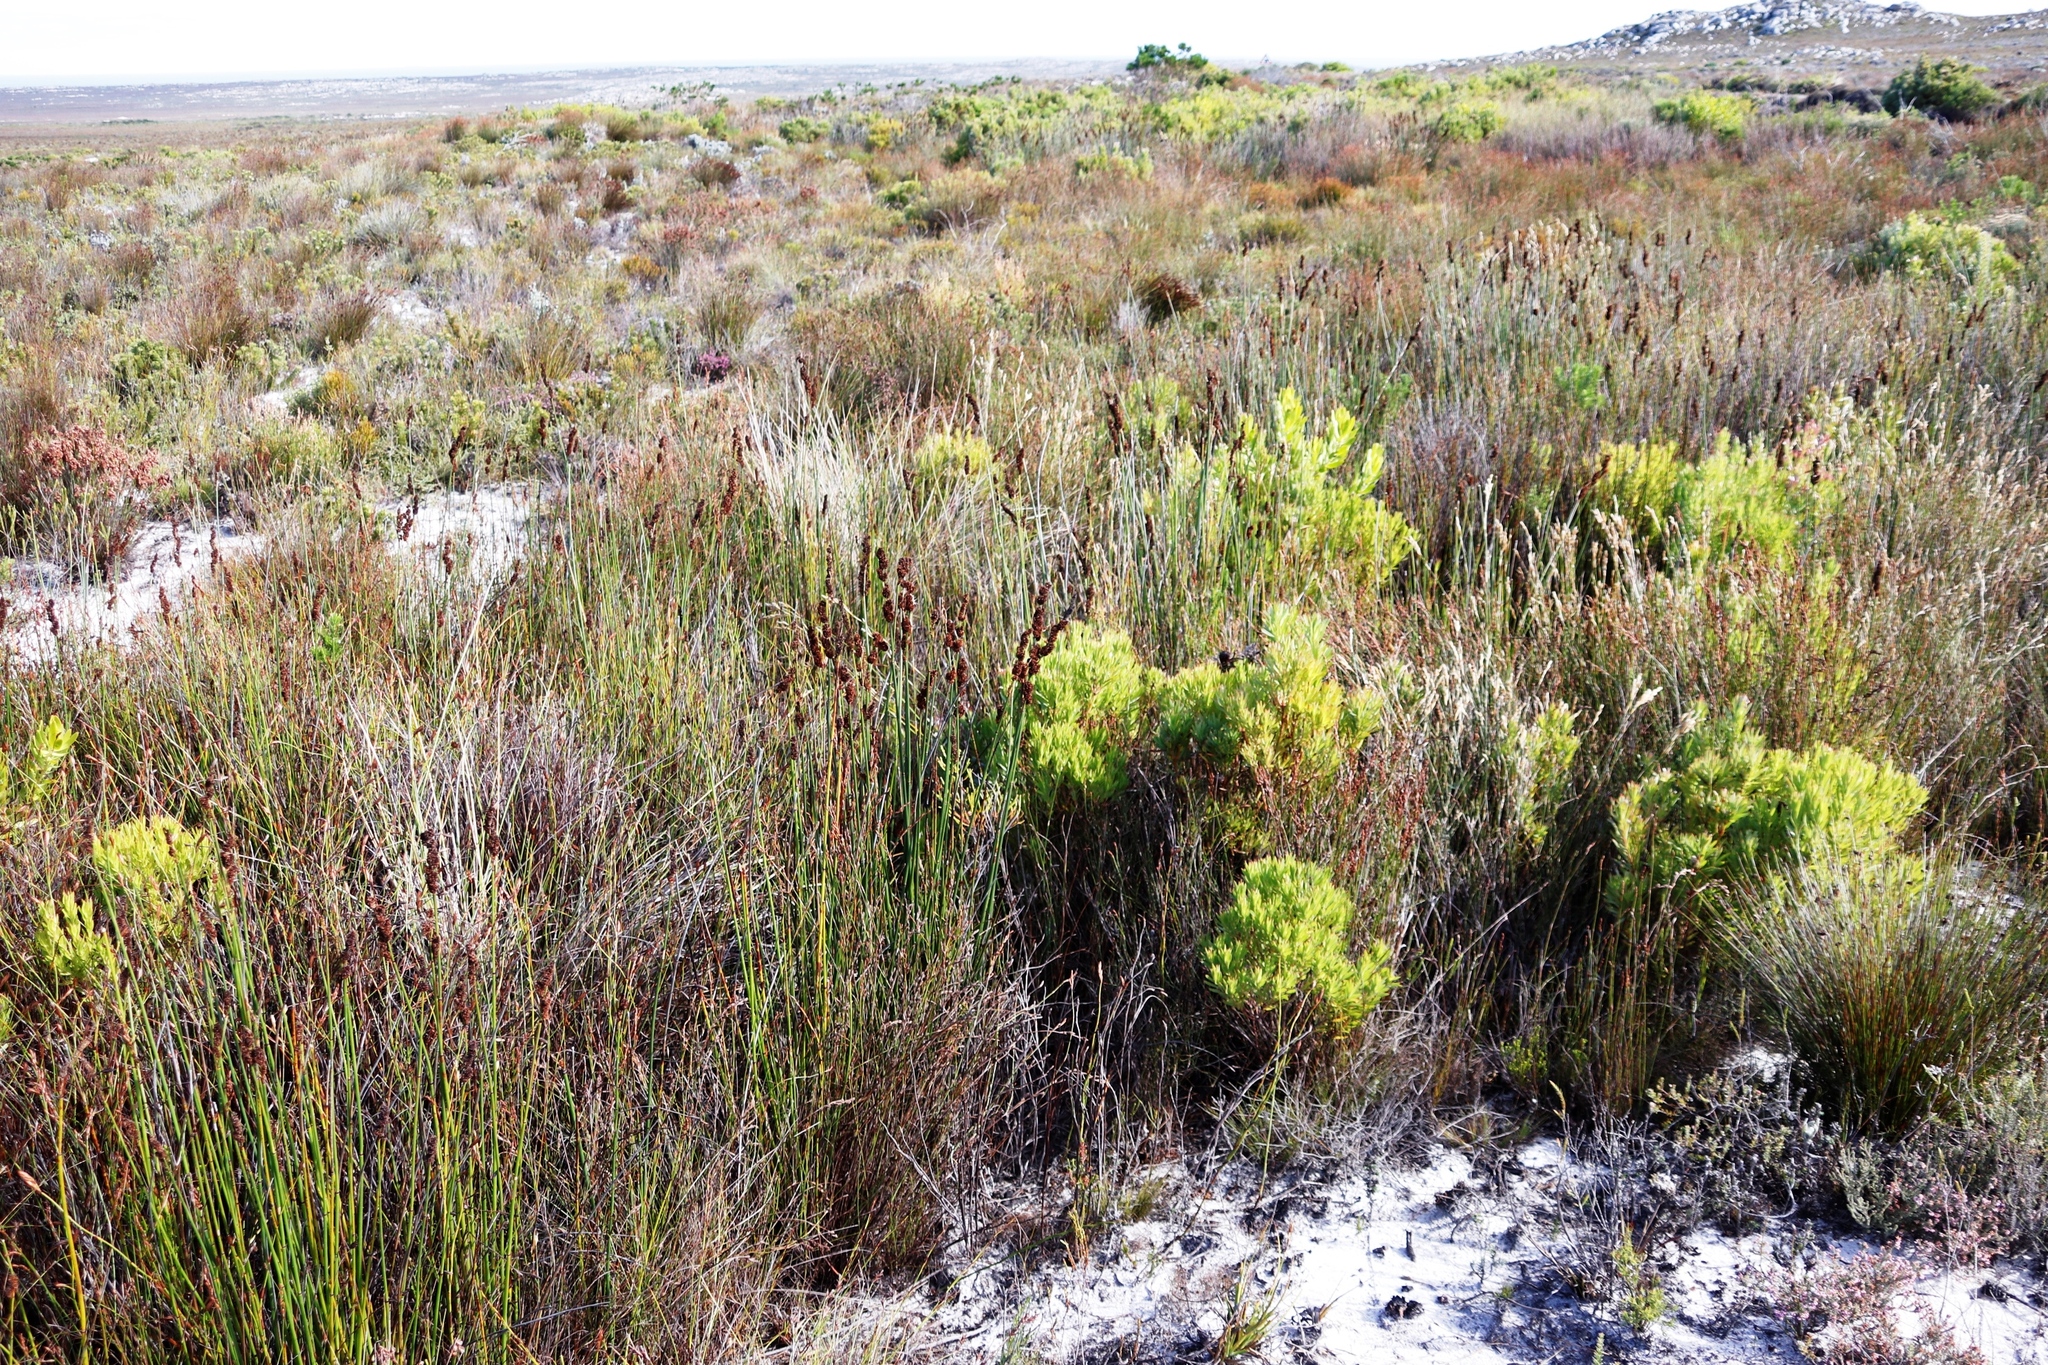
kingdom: Plantae
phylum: Tracheophyta
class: Liliopsida
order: Poales
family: Restionaceae
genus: Elegia
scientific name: Elegia cuspidata
